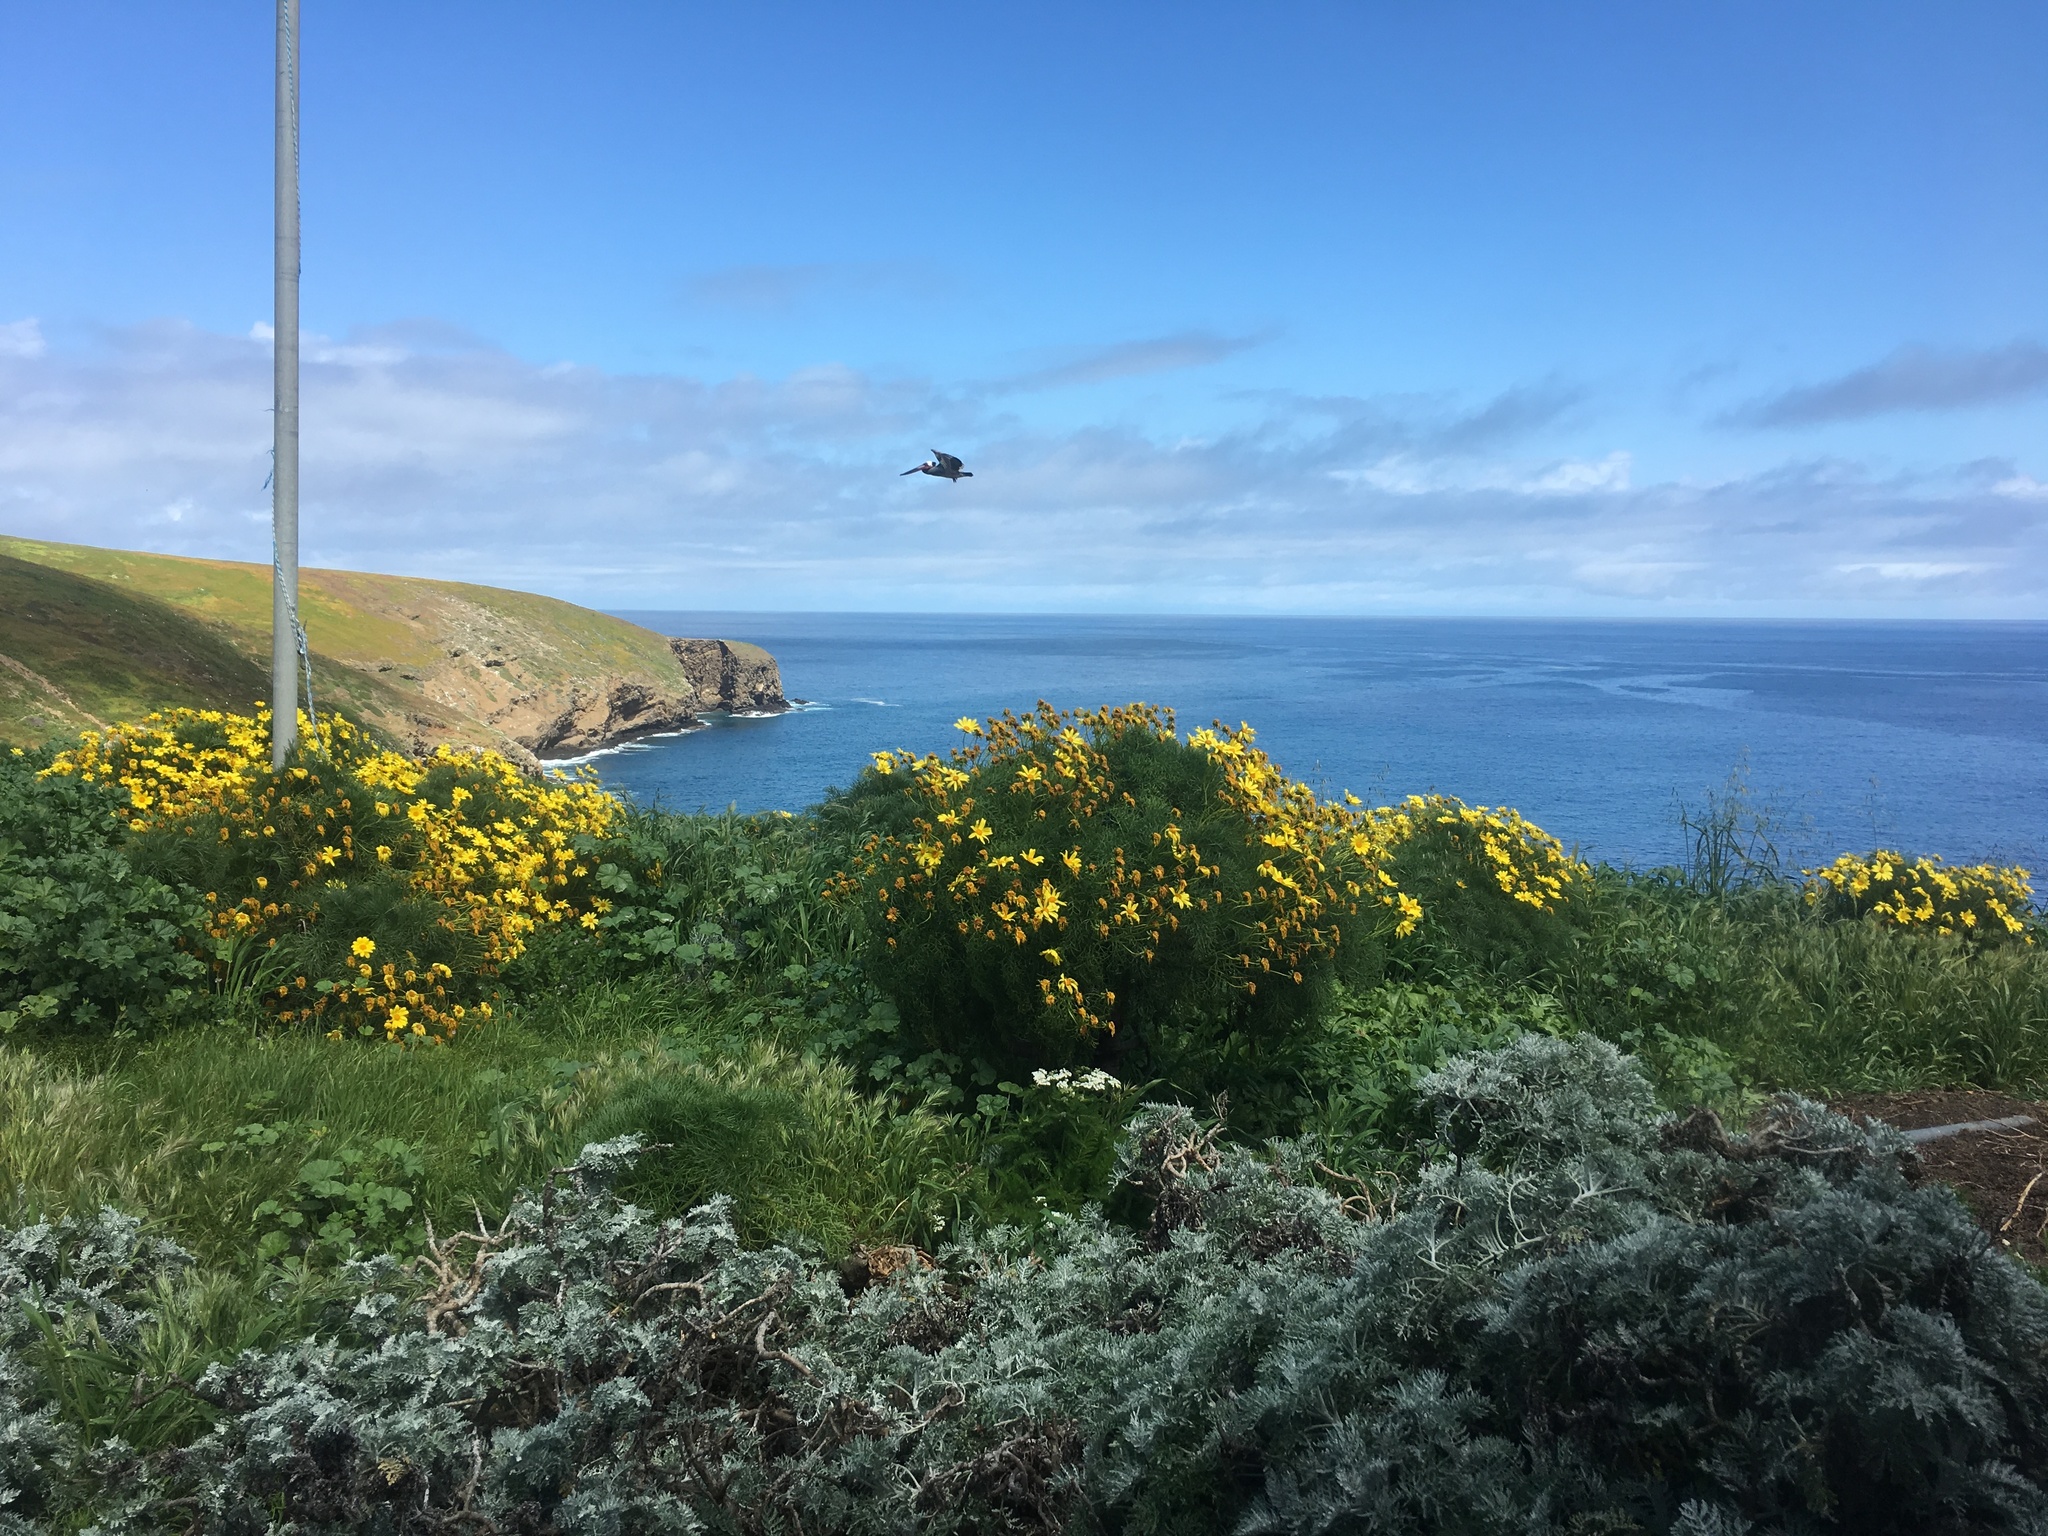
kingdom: Plantae
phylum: Tracheophyta
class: Magnoliopsida
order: Asterales
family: Asteraceae
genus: Coreopsis
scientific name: Coreopsis gigantea
